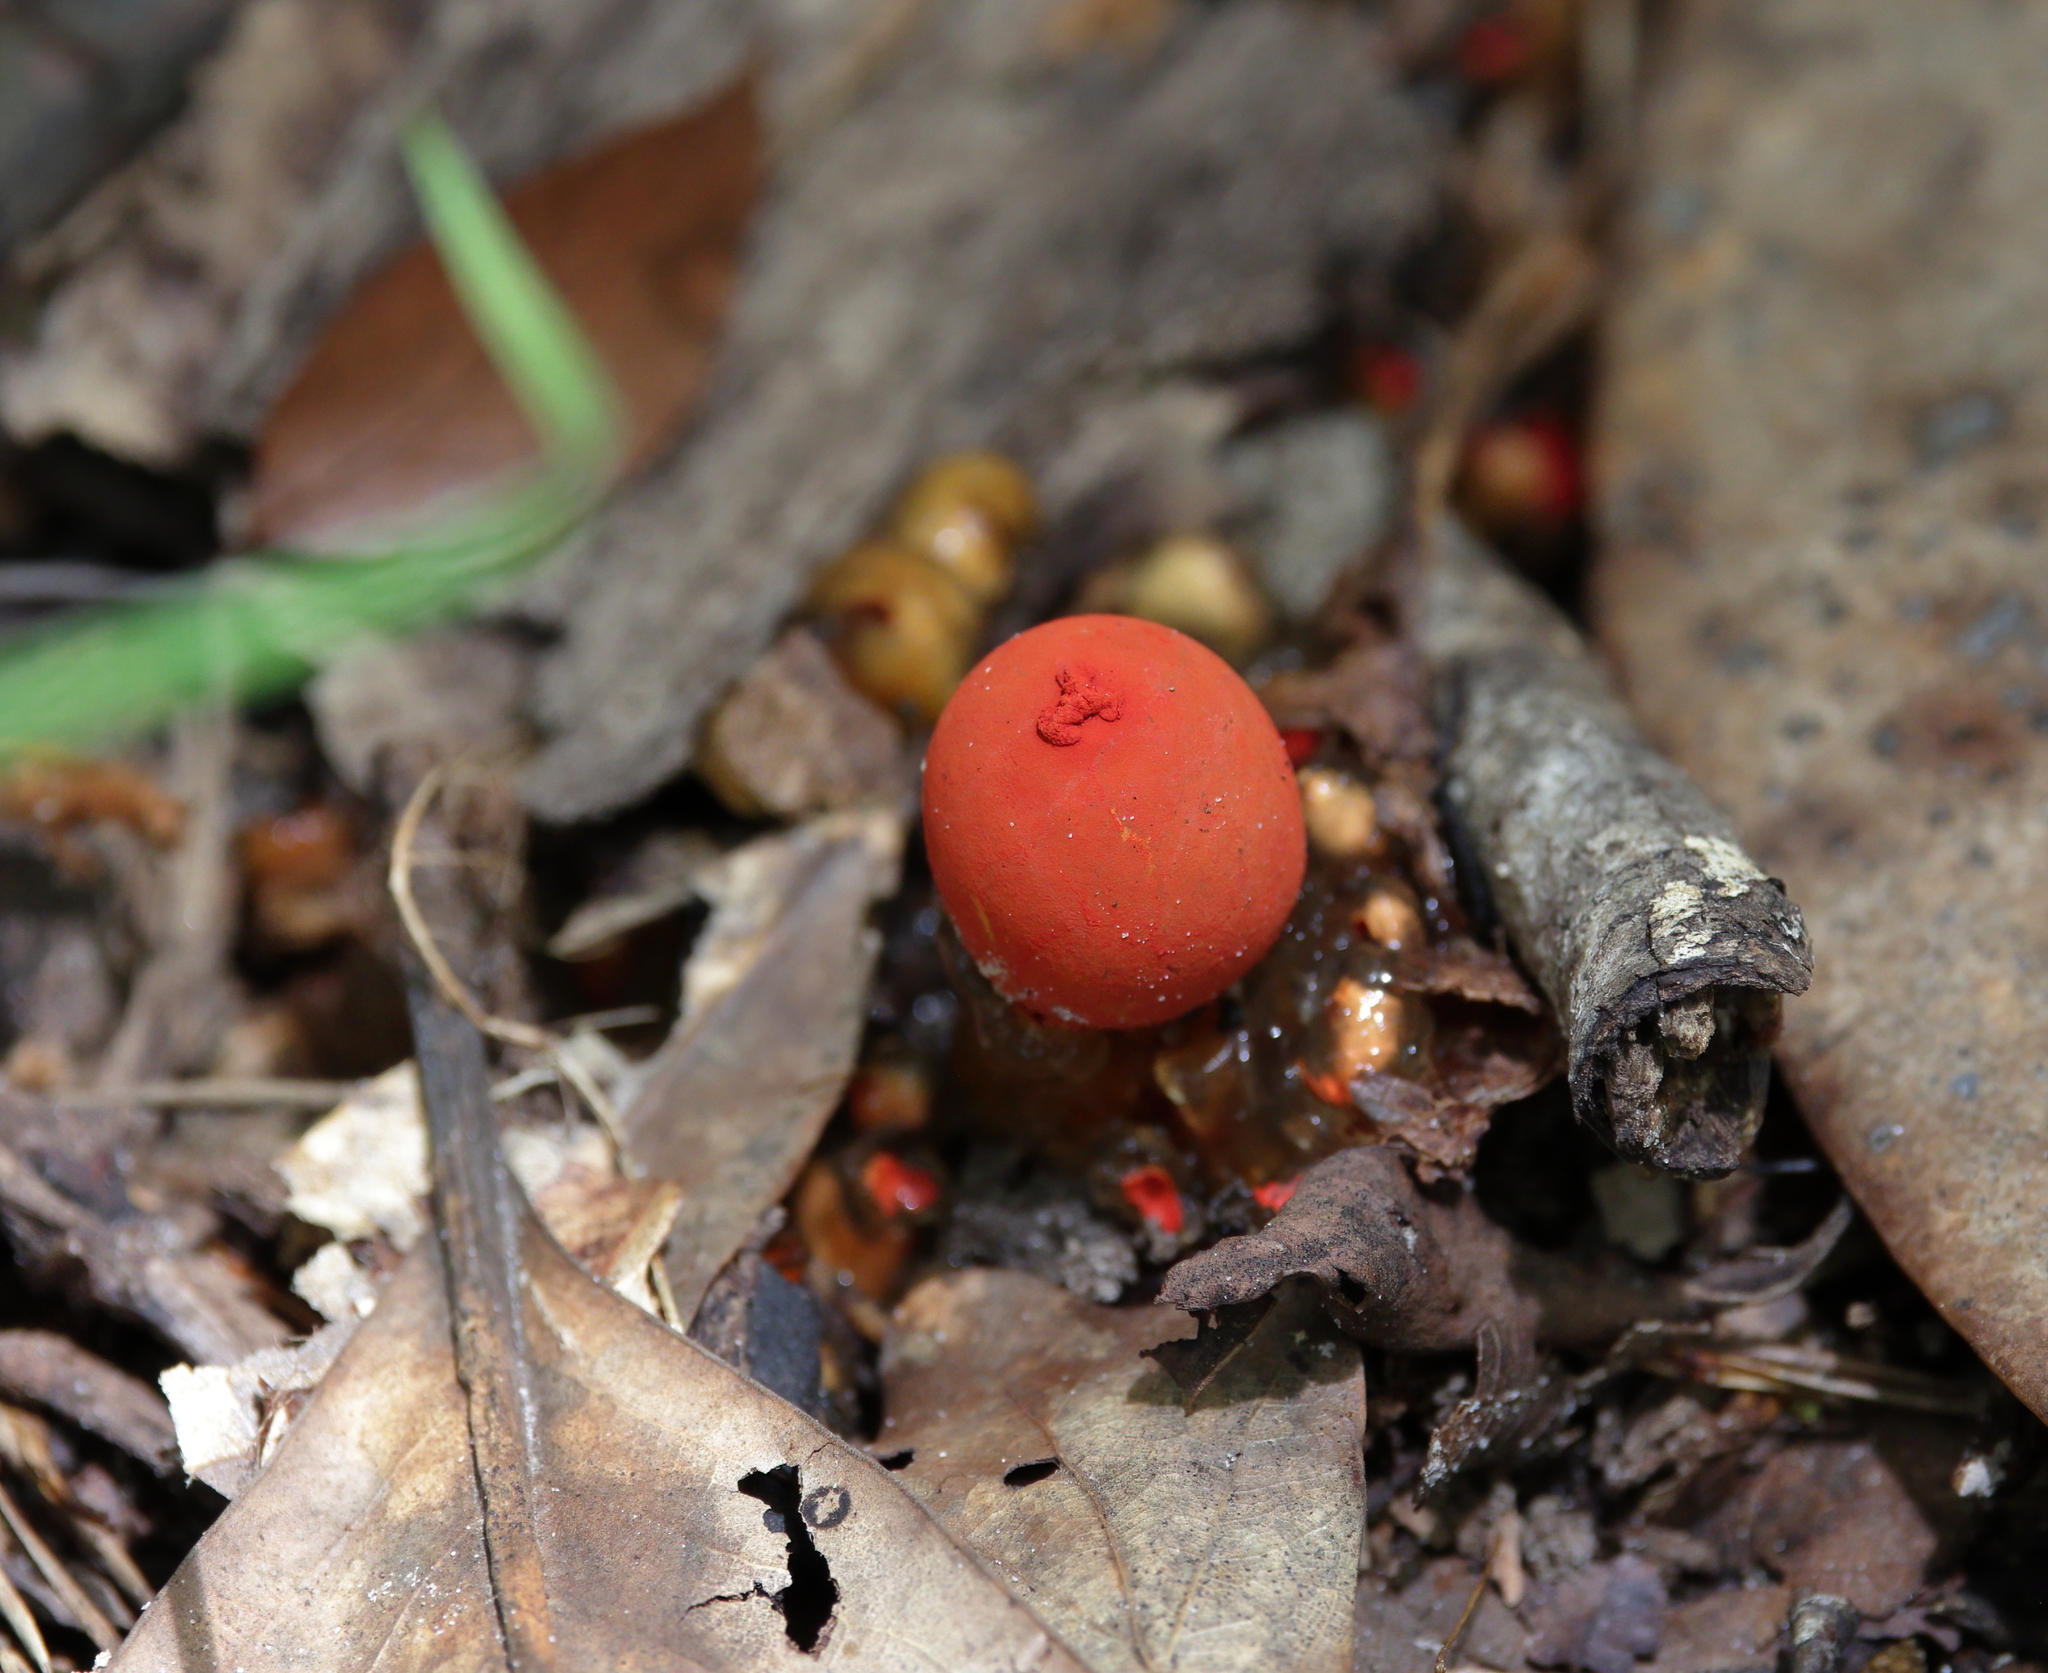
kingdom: Fungi
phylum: Basidiomycota
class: Agaricomycetes
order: Boletales
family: Calostomataceae
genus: Calostoma
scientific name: Calostoma cinnabarinum
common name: Stalked puffball-in-aspic
